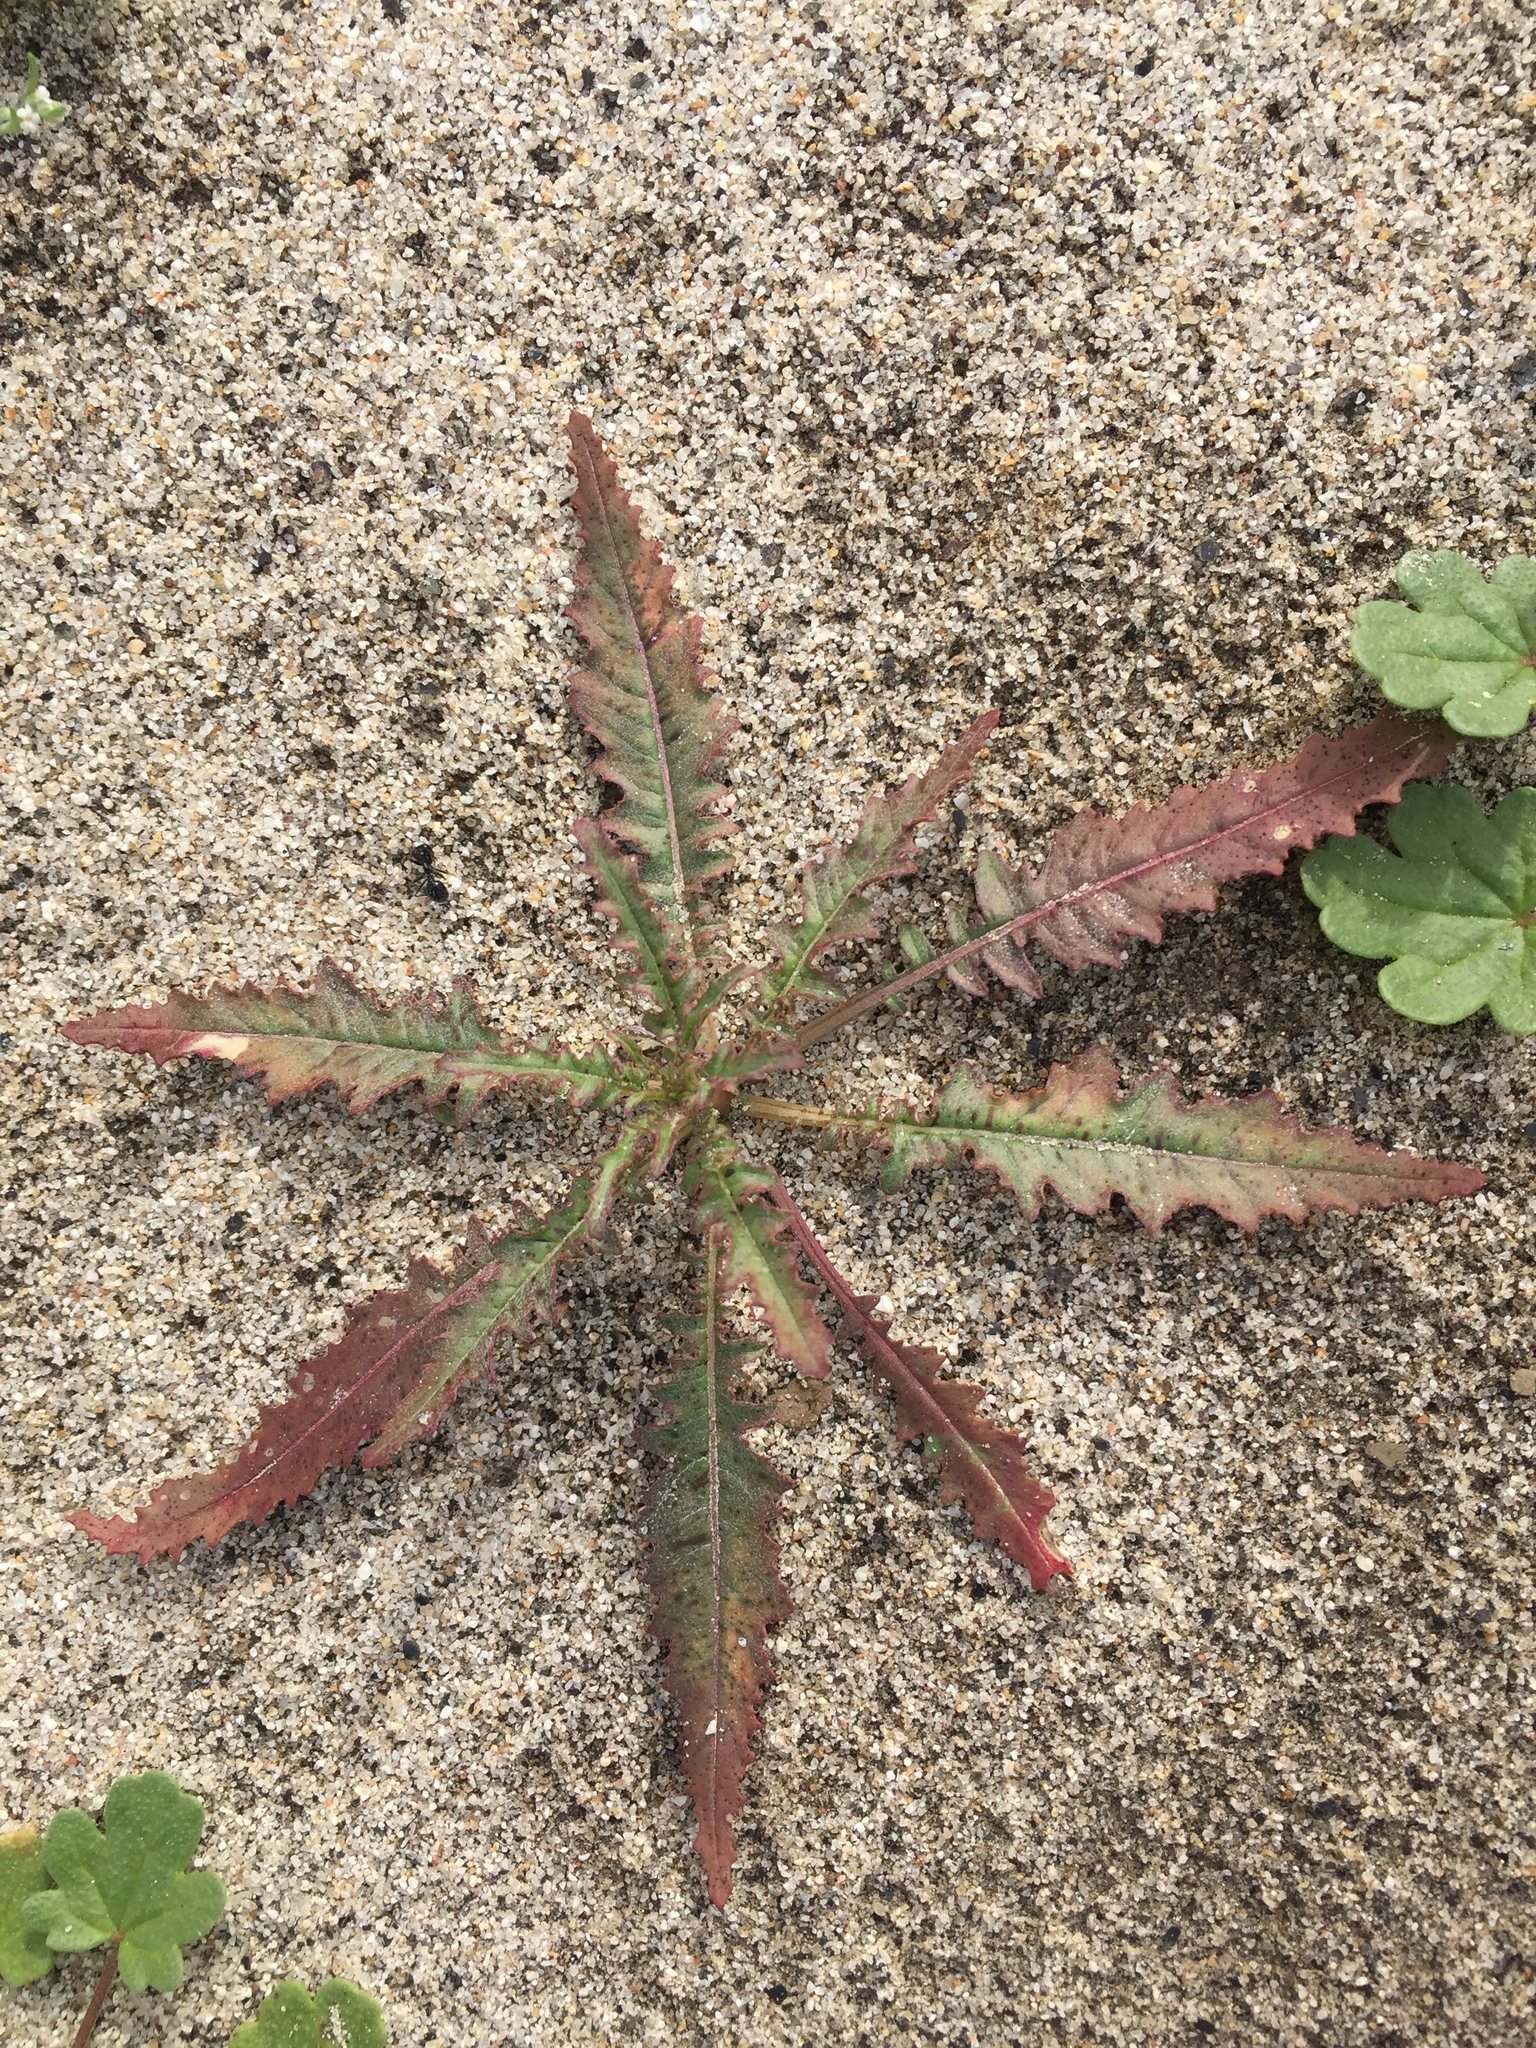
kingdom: Plantae
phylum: Tracheophyta
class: Magnoliopsida
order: Myrtales
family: Onagraceae
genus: Eulobus
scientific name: Eulobus californicus
